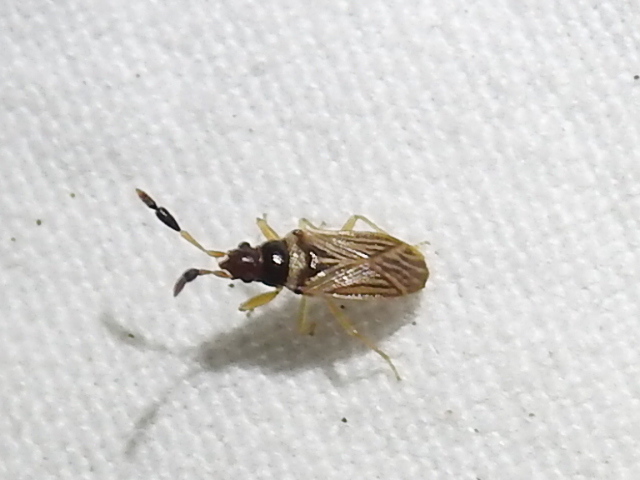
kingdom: Animalia
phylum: Arthropoda
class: Insecta
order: Hemiptera
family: Rhyparochromidae
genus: Ptochiomera
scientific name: Ptochiomera nodosa
